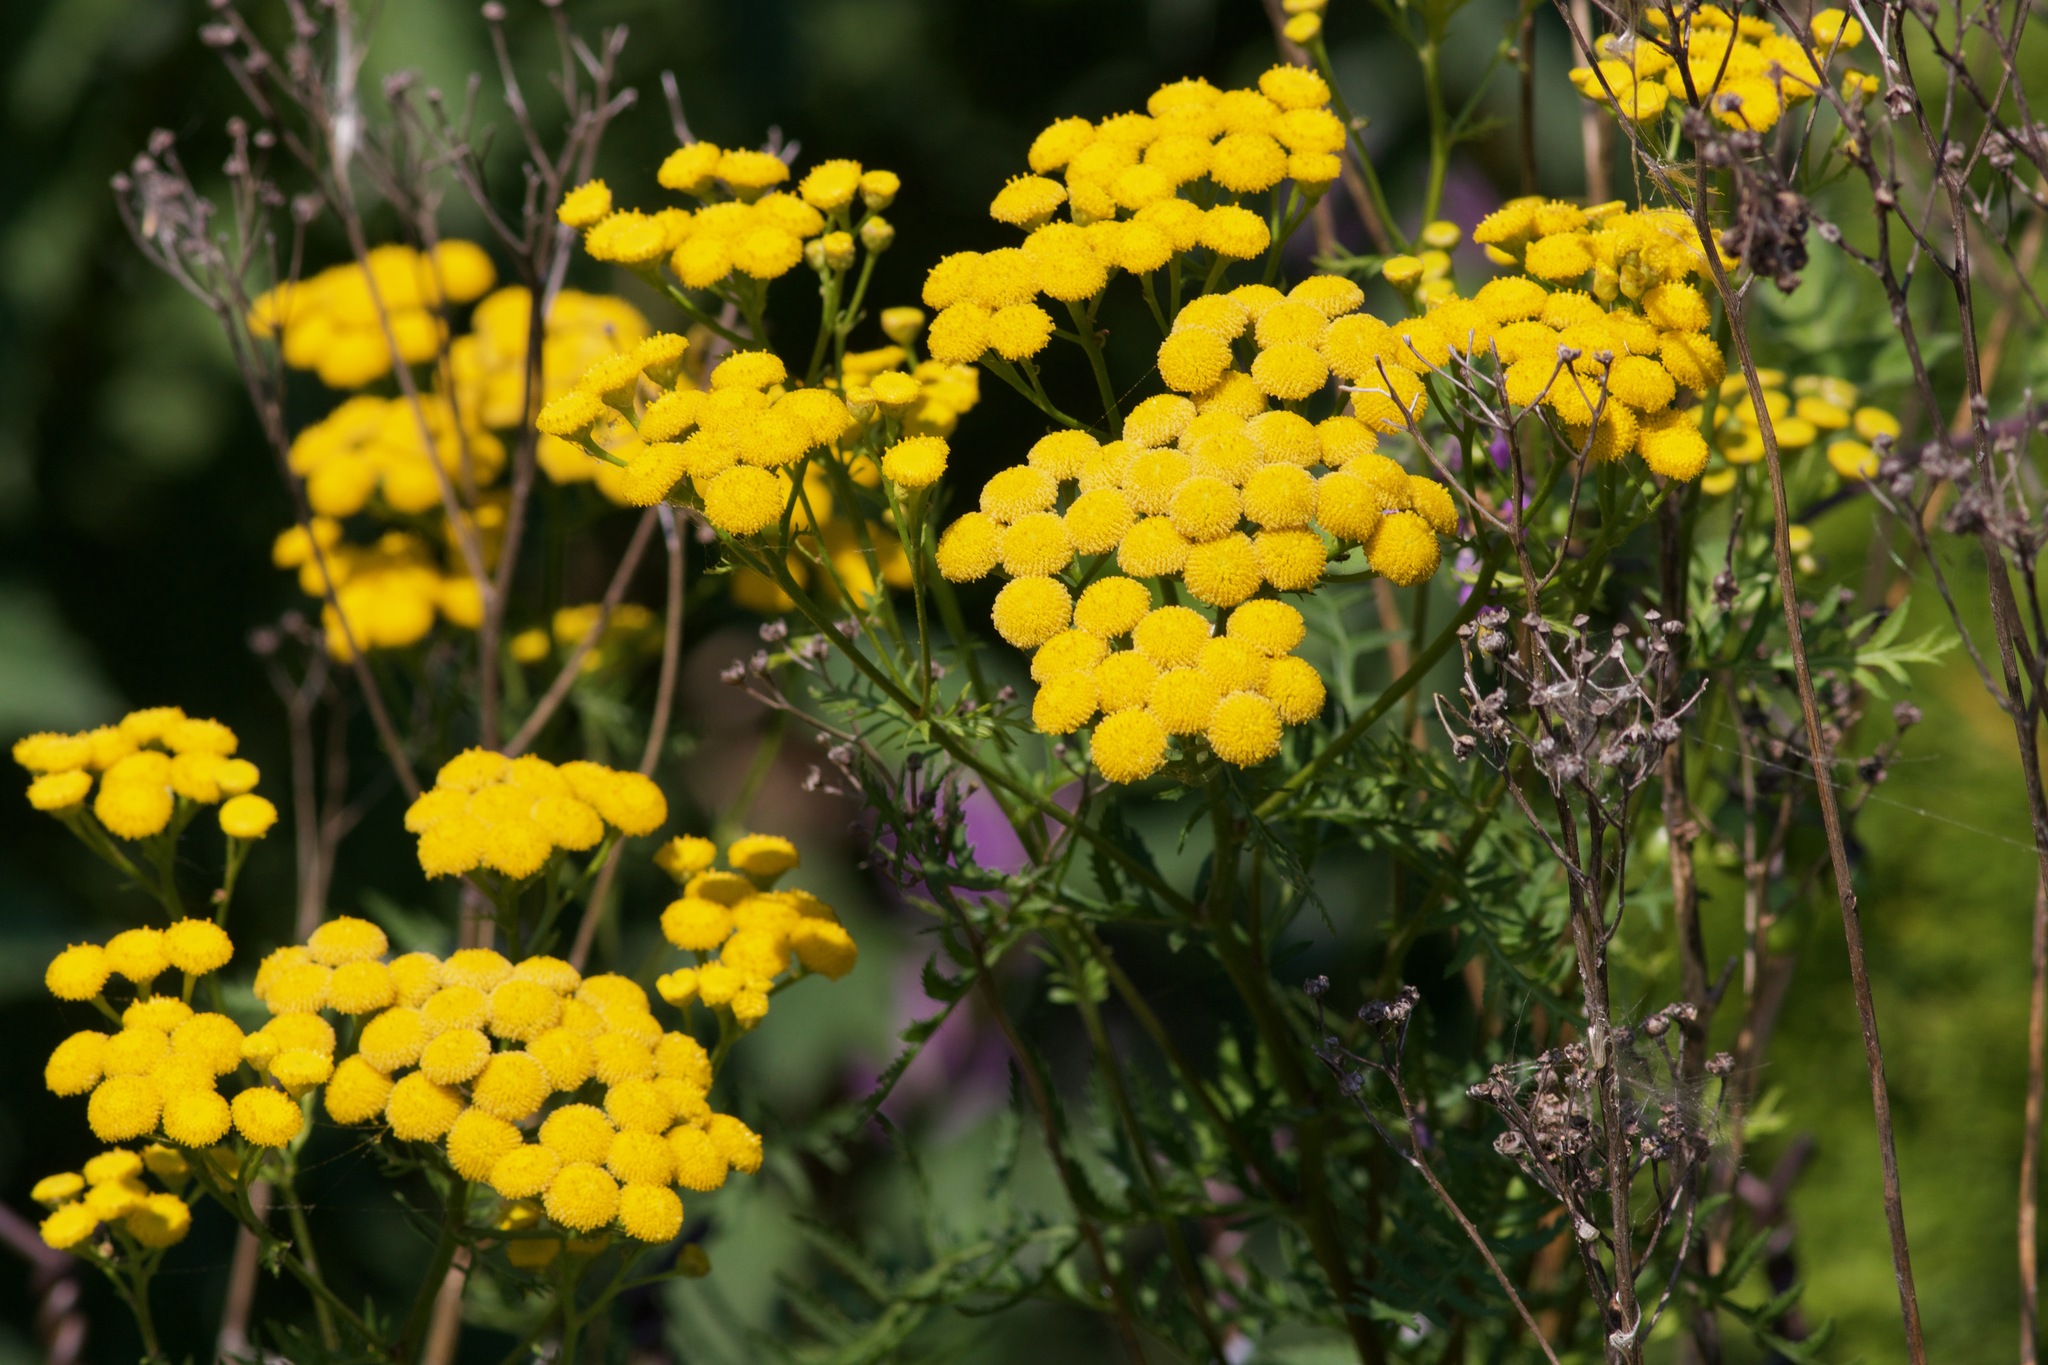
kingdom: Plantae
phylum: Tracheophyta
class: Magnoliopsida
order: Asterales
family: Asteraceae
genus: Tanacetum
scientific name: Tanacetum vulgare
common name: Common tansy
